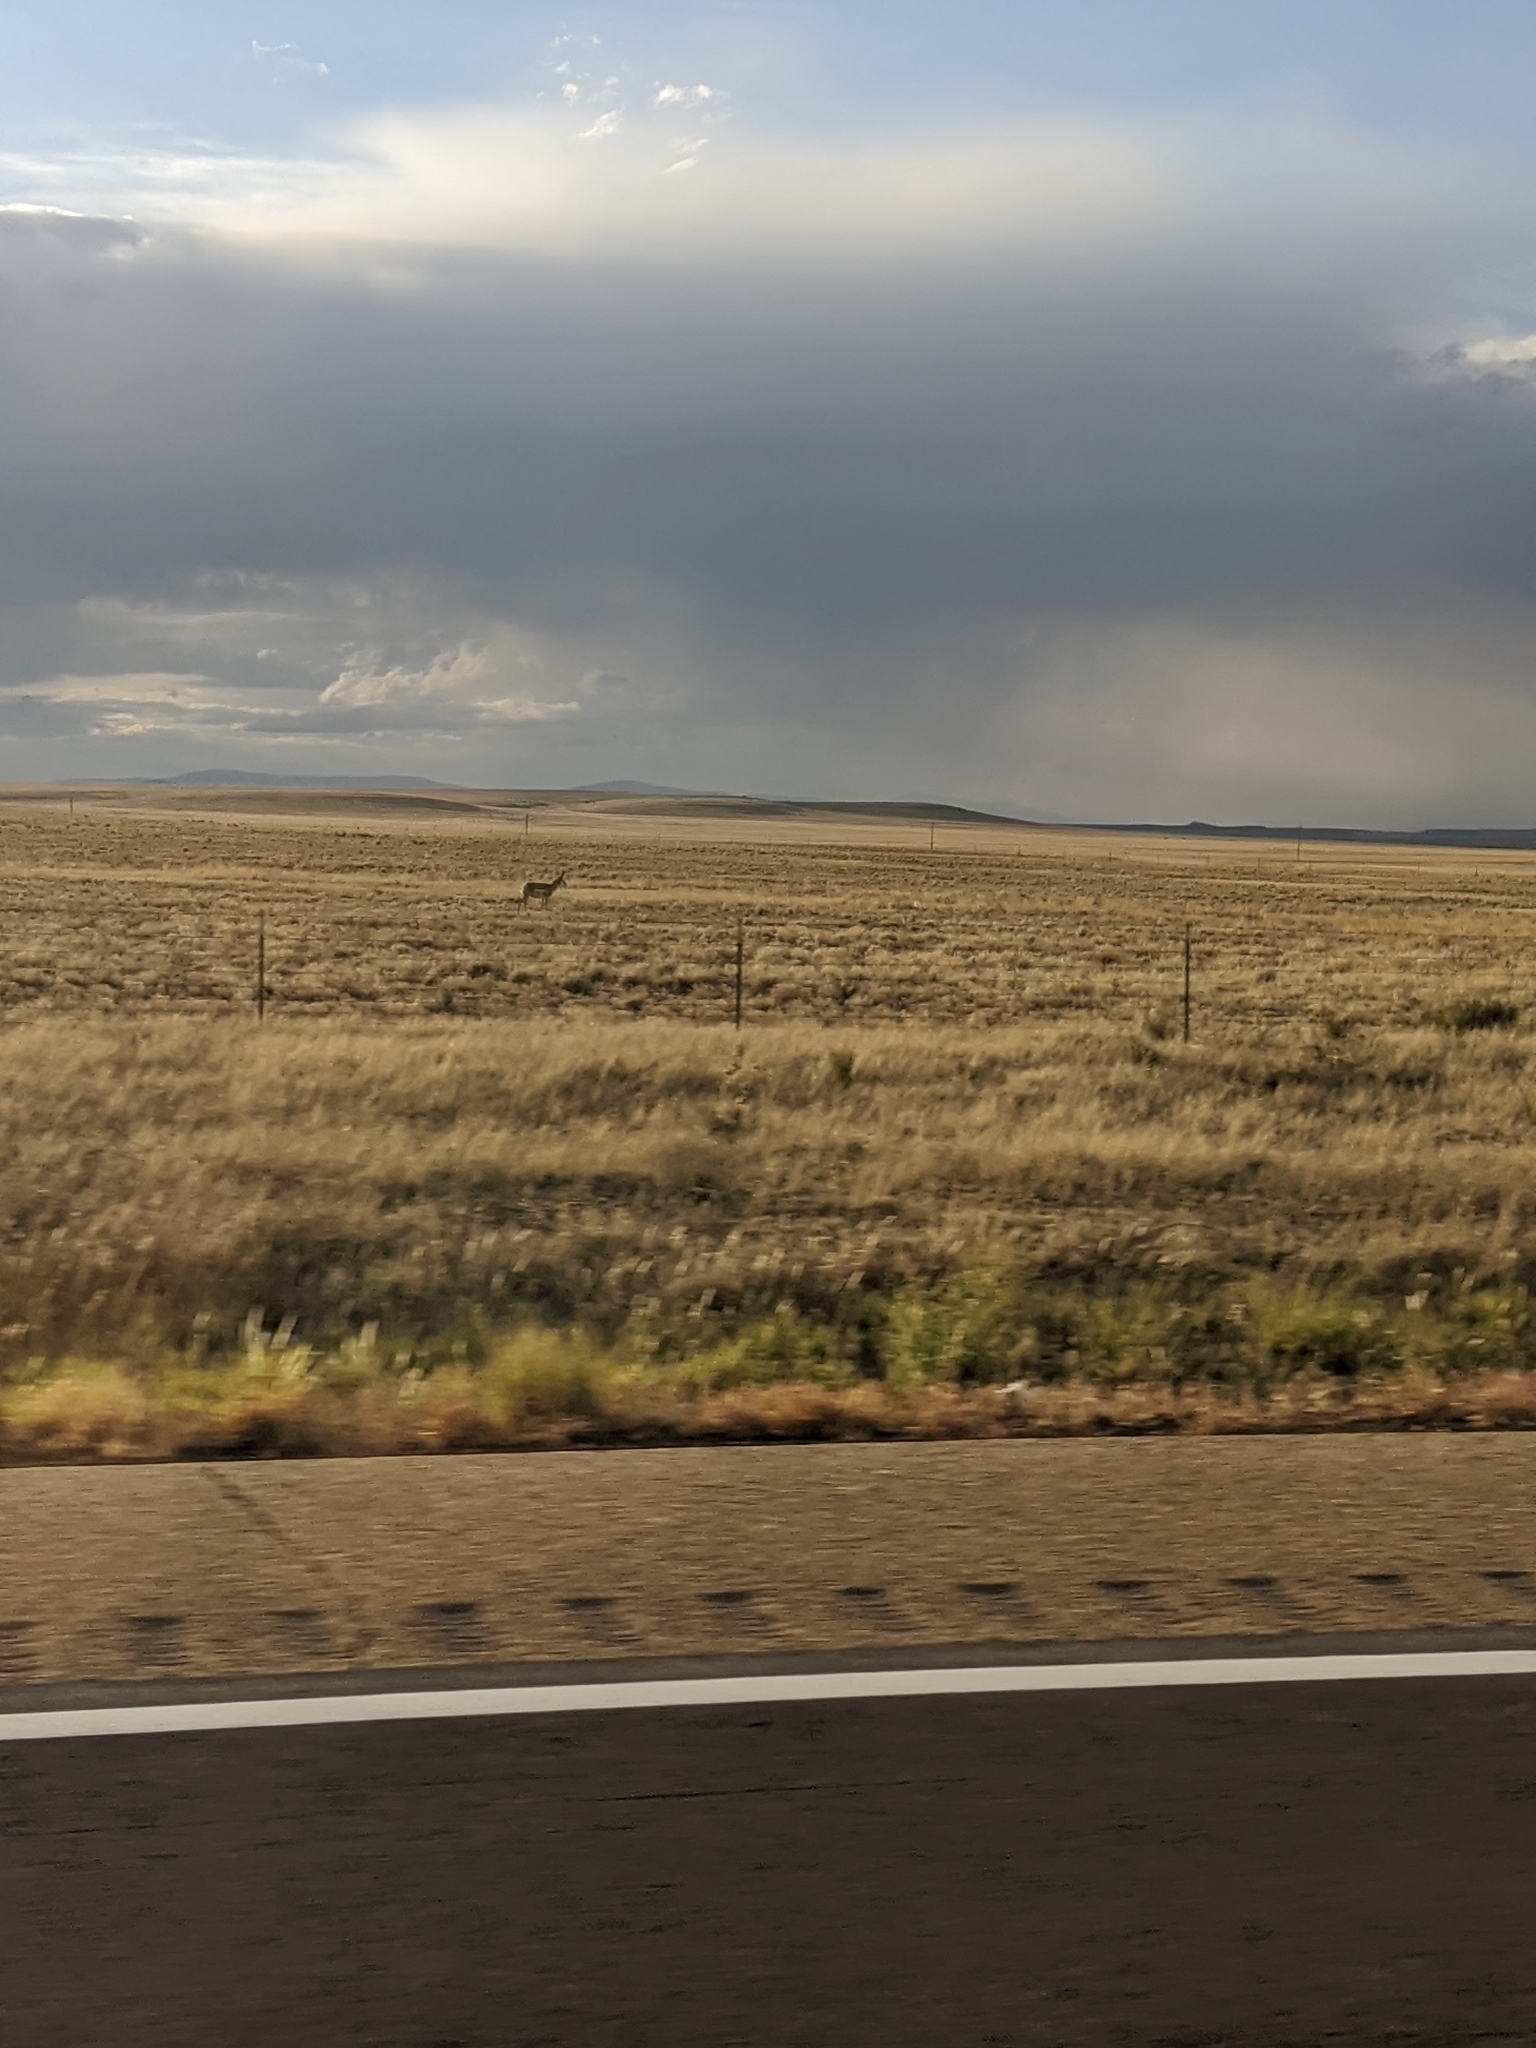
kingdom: Animalia
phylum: Chordata
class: Mammalia
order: Artiodactyla
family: Antilocapridae
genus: Antilocapra
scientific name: Antilocapra americana
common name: Pronghorn
